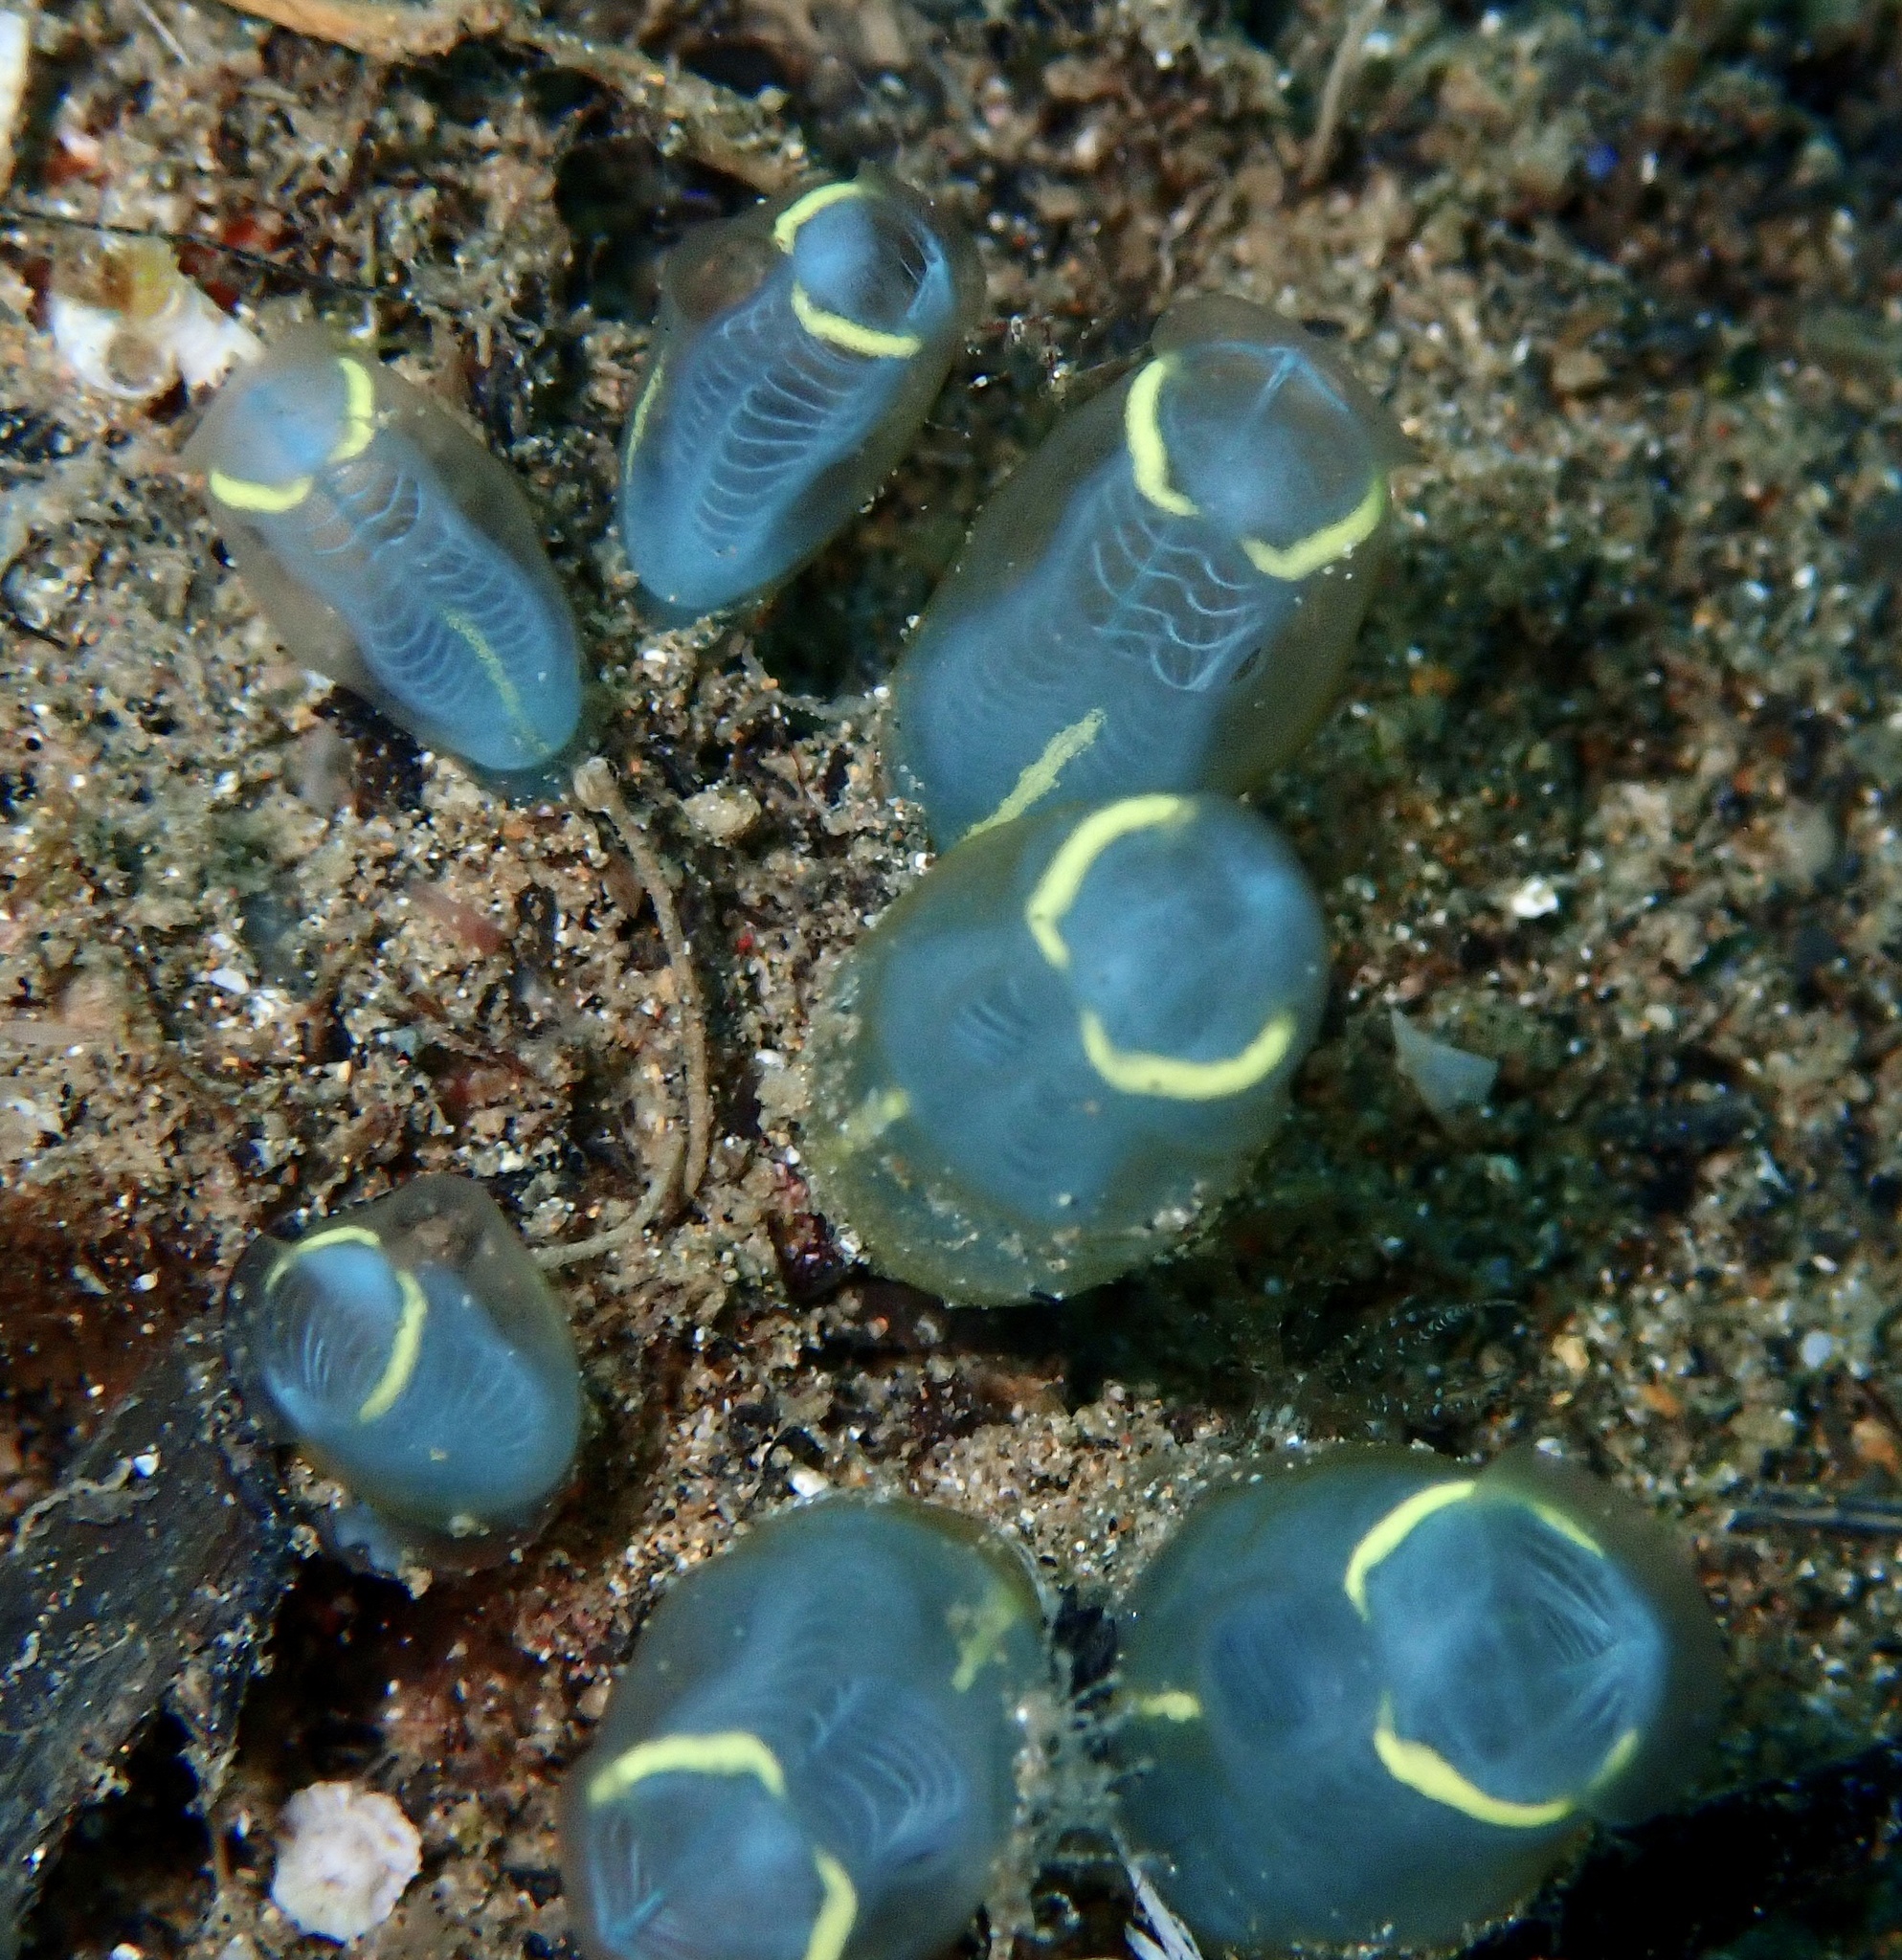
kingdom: Animalia
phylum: Chordata
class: Ascidiacea
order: Aplousobranchia
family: Clavelinidae
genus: Clavelina
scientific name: Clavelina cyclus
